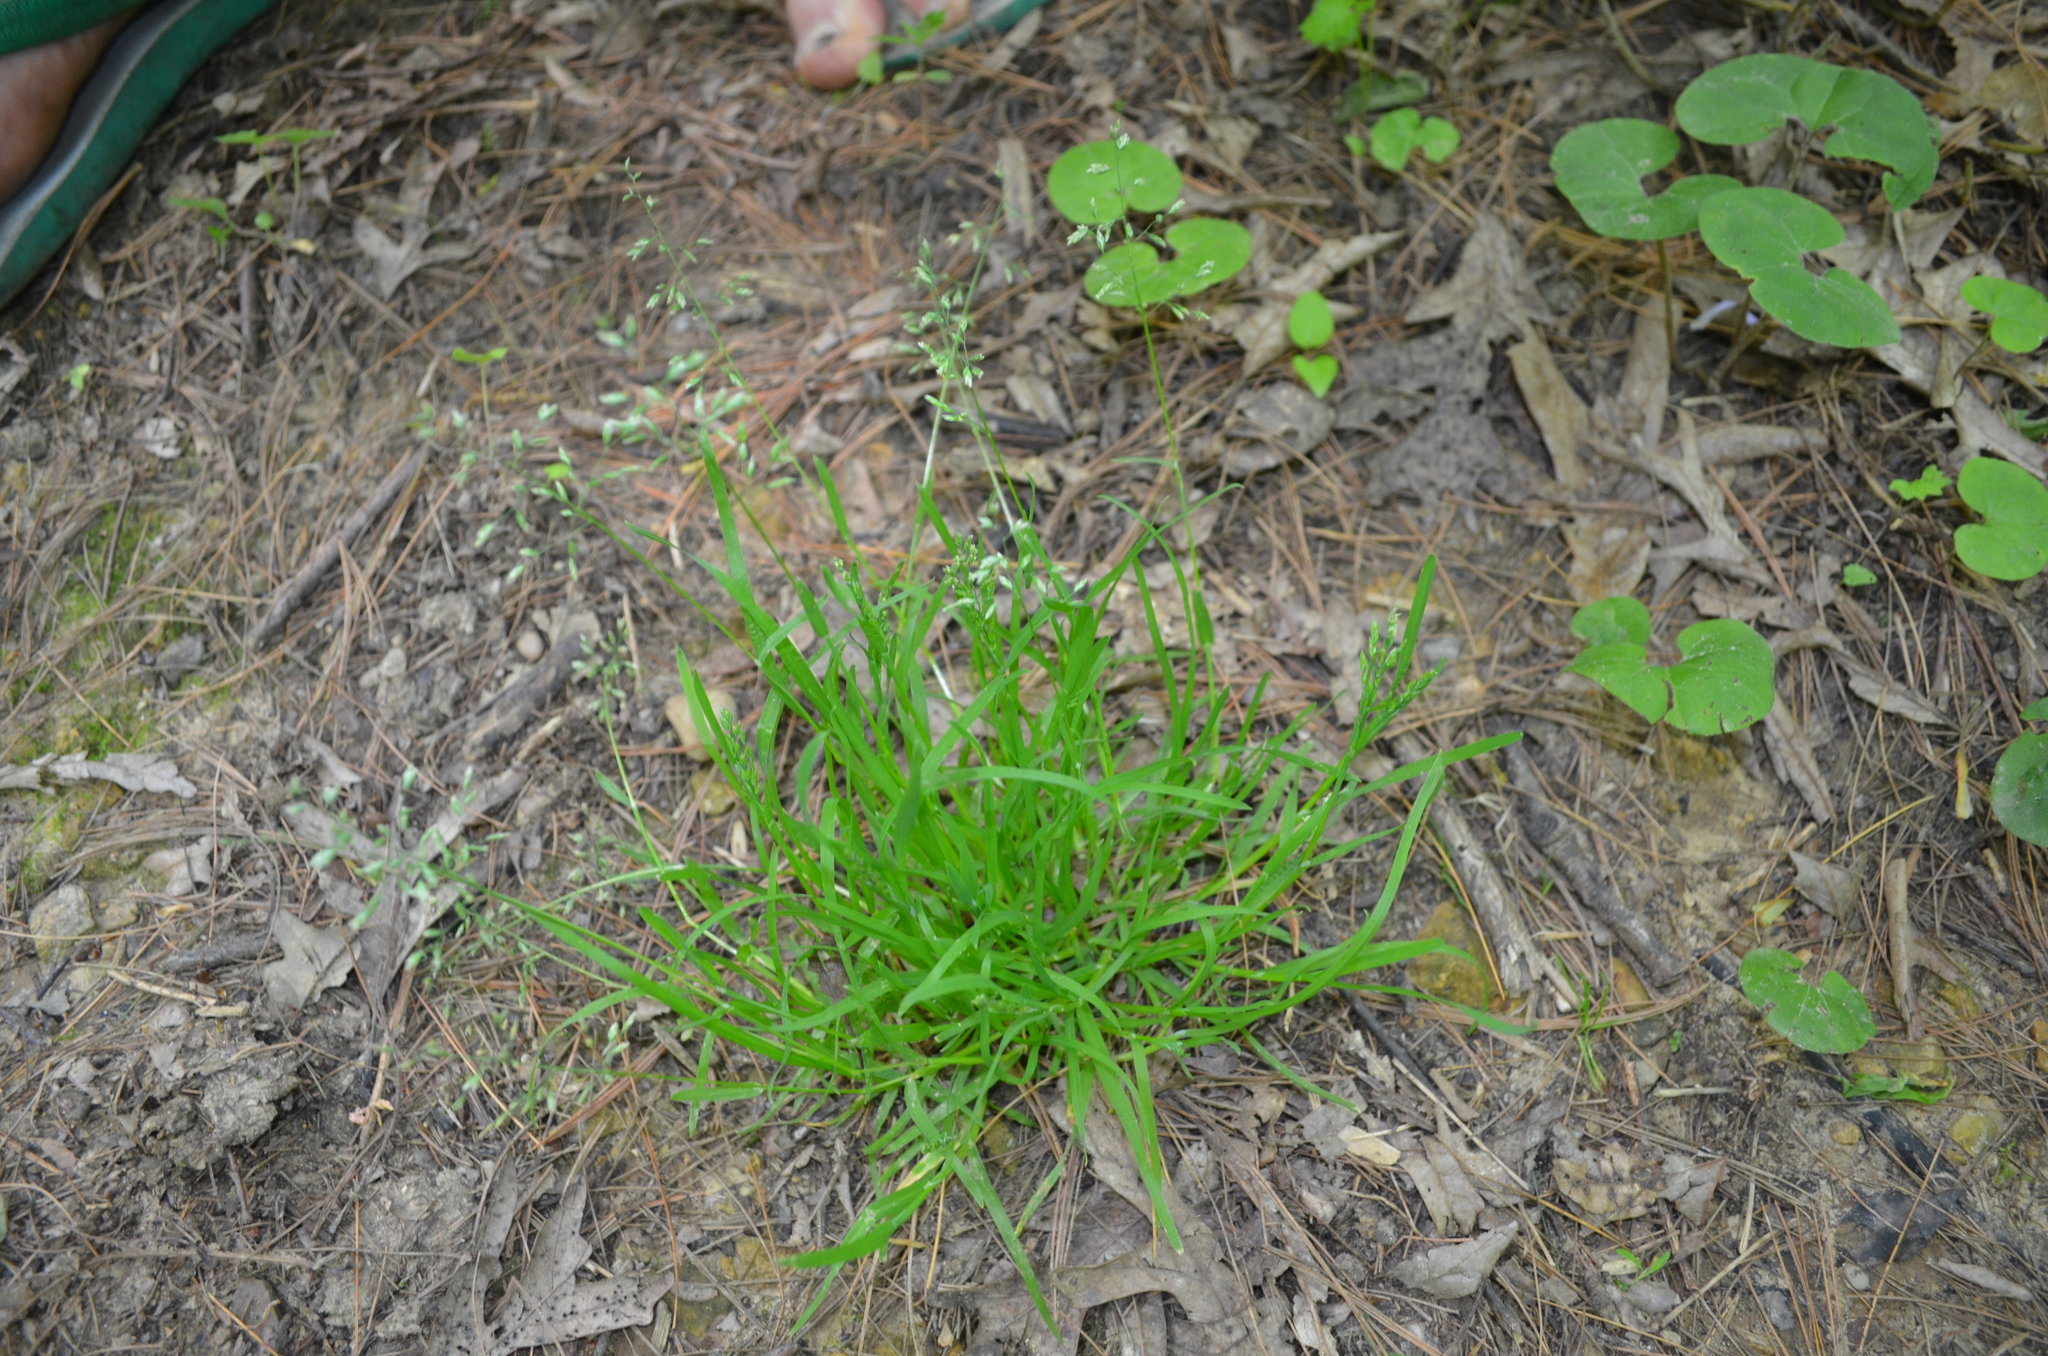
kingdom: Plantae
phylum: Tracheophyta
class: Liliopsida
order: Poales
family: Poaceae
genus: Poa
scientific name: Poa pratensis
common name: Kentucky bluegrass
